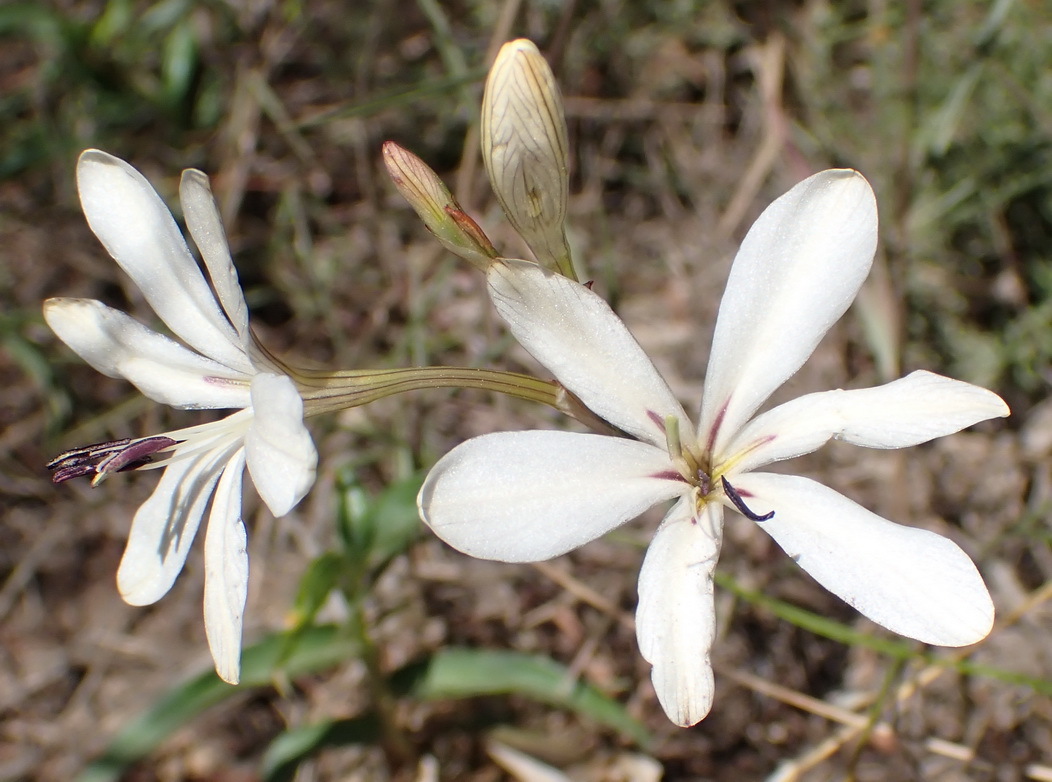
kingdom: Plantae
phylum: Tracheophyta
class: Liliopsida
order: Asparagales
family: Iridaceae
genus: Tritonia
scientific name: Tritonia bakeri
